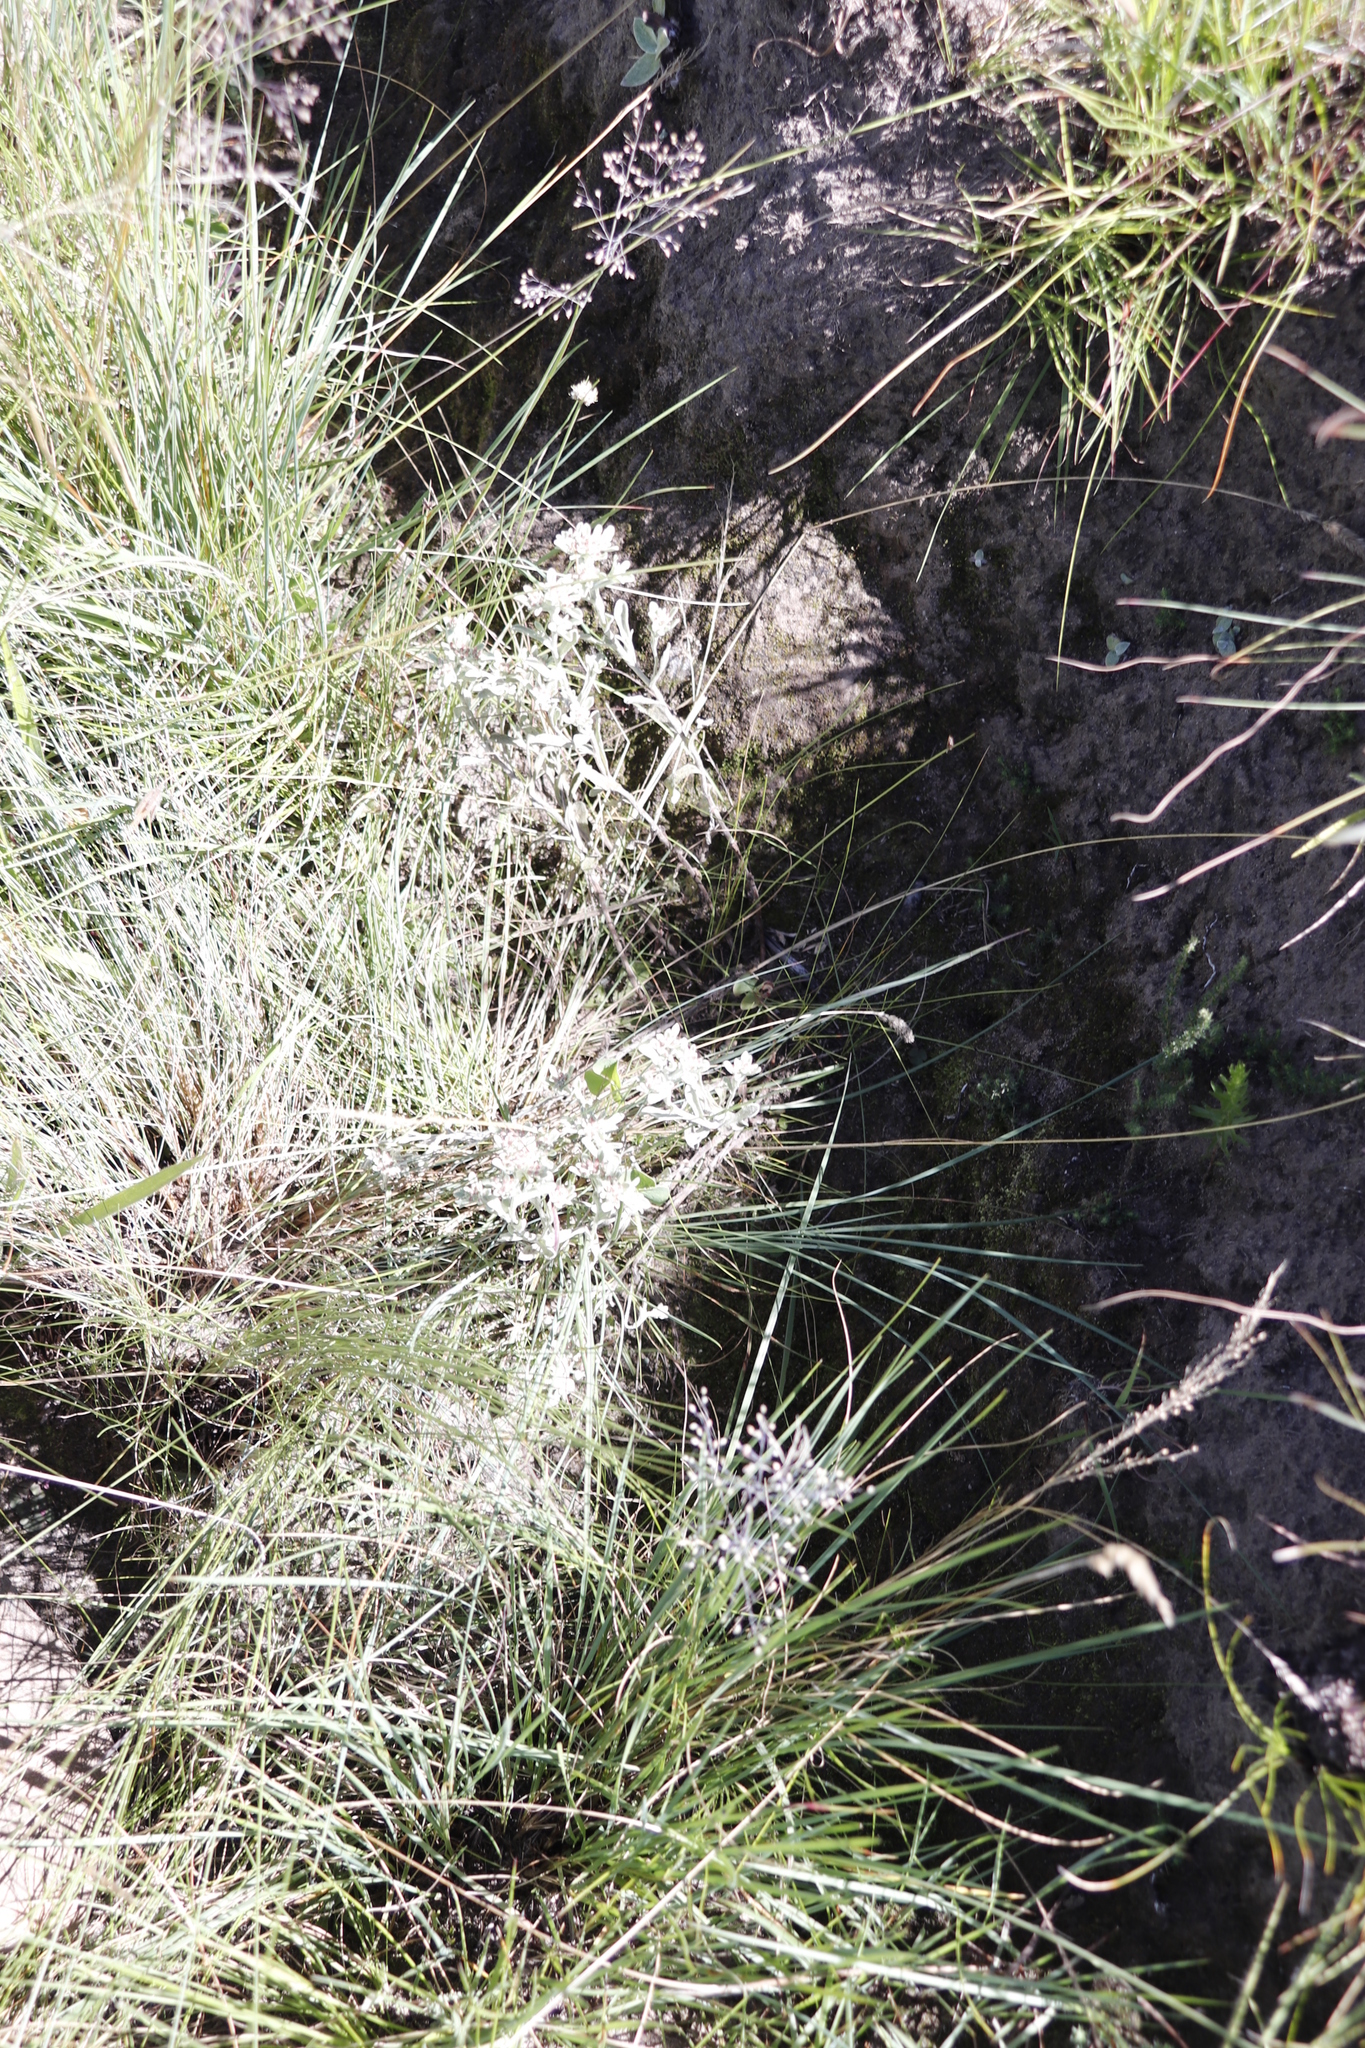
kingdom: Plantae
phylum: Tracheophyta
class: Liliopsida
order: Poales
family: Poaceae
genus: Trichanthecium
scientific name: Trichanthecium natalense
